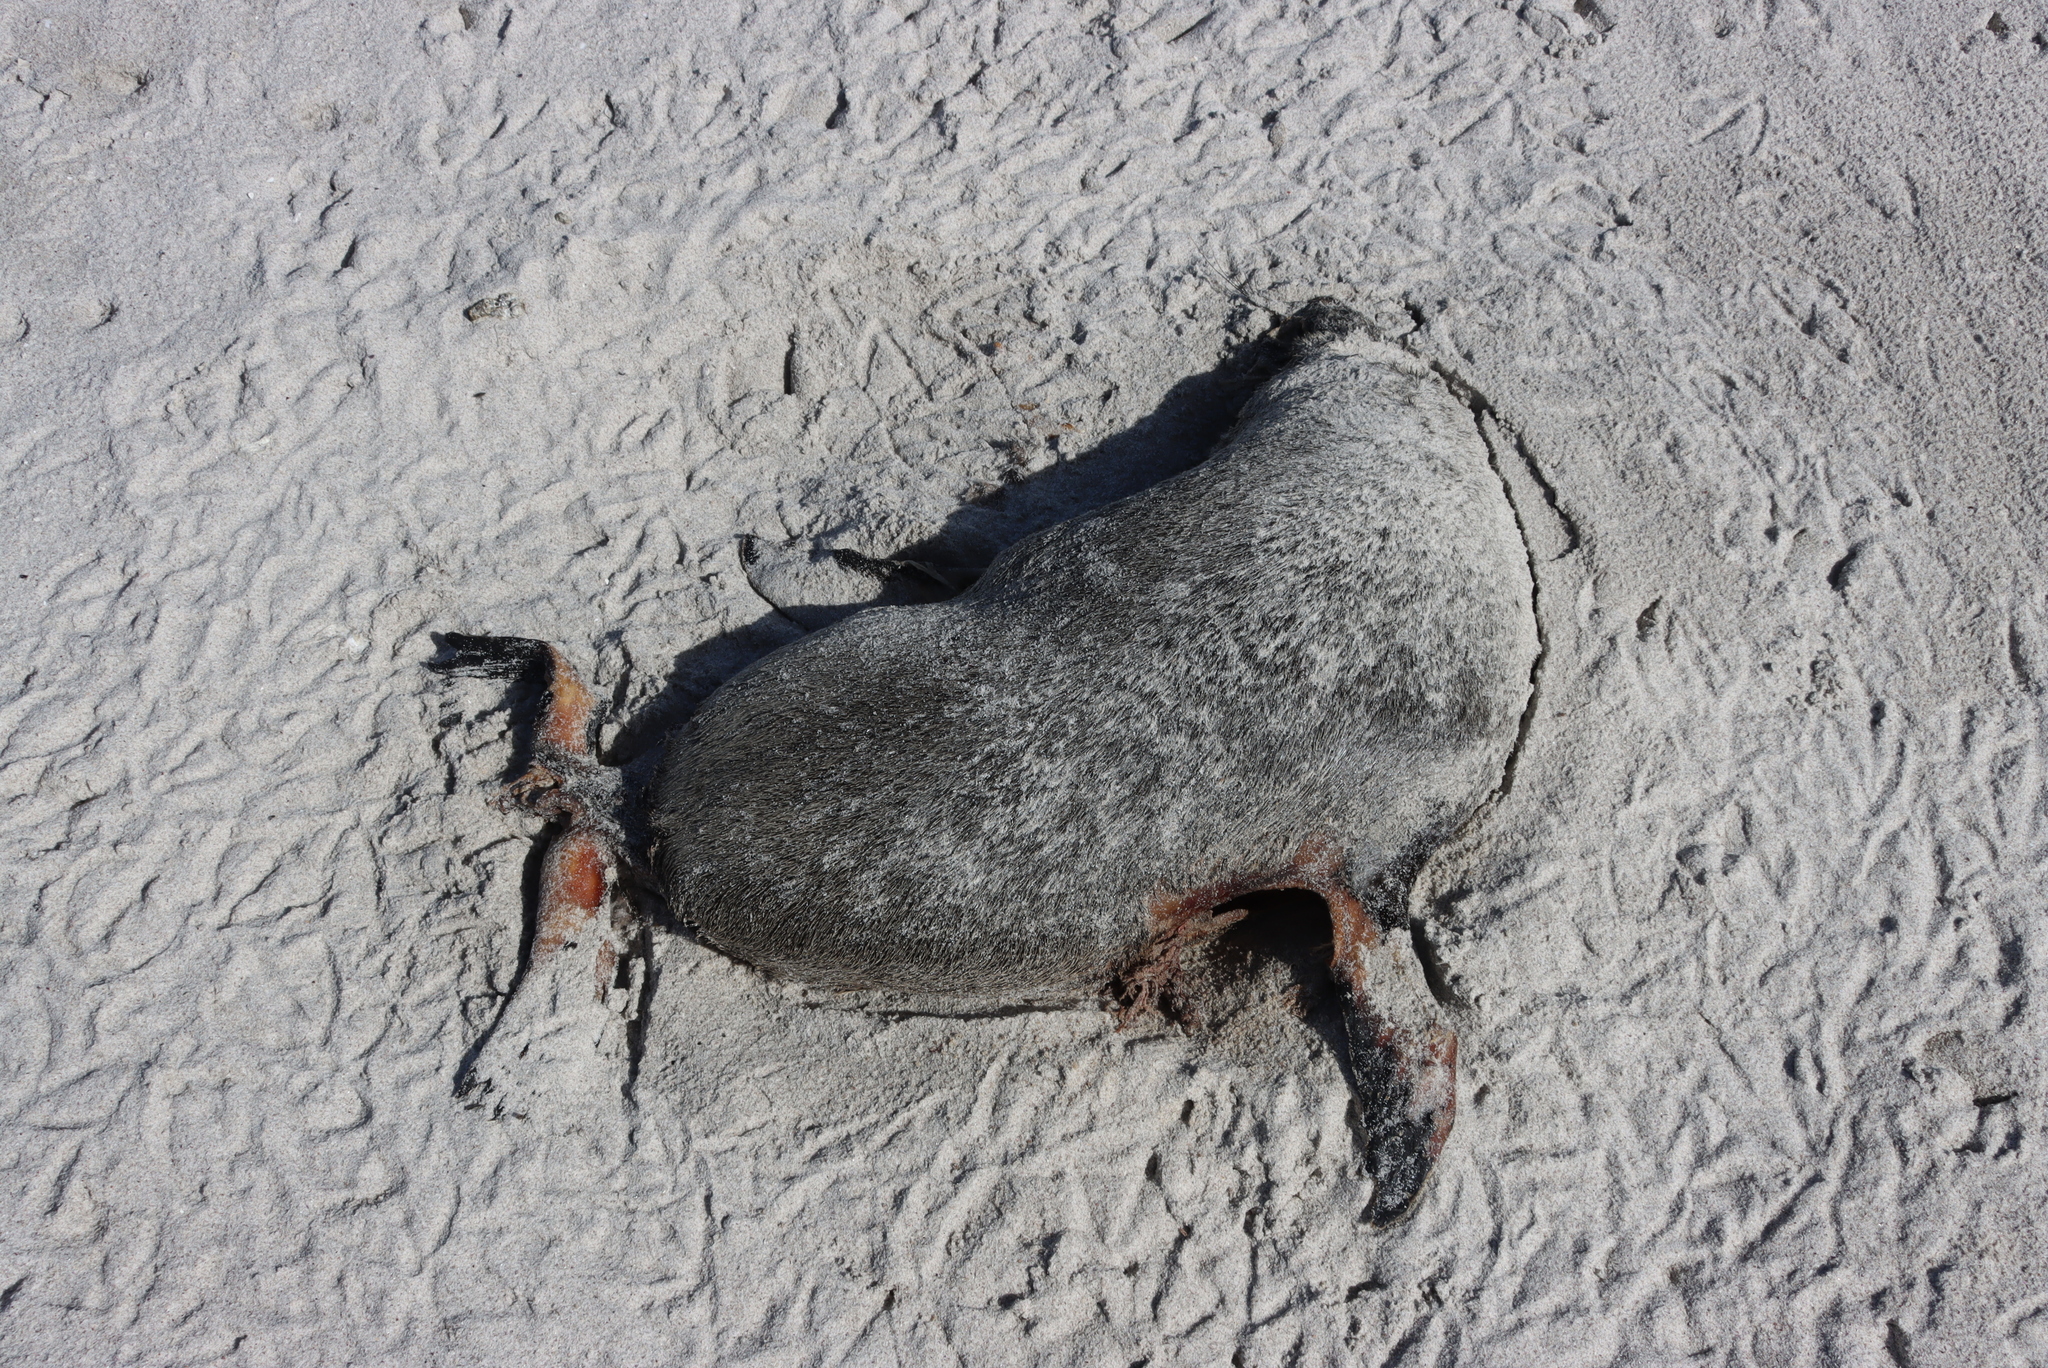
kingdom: Animalia
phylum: Chordata
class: Mammalia
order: Carnivora
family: Otariidae
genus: Arctocephalus
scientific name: Arctocephalus pusillus
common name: Brown fur seal
